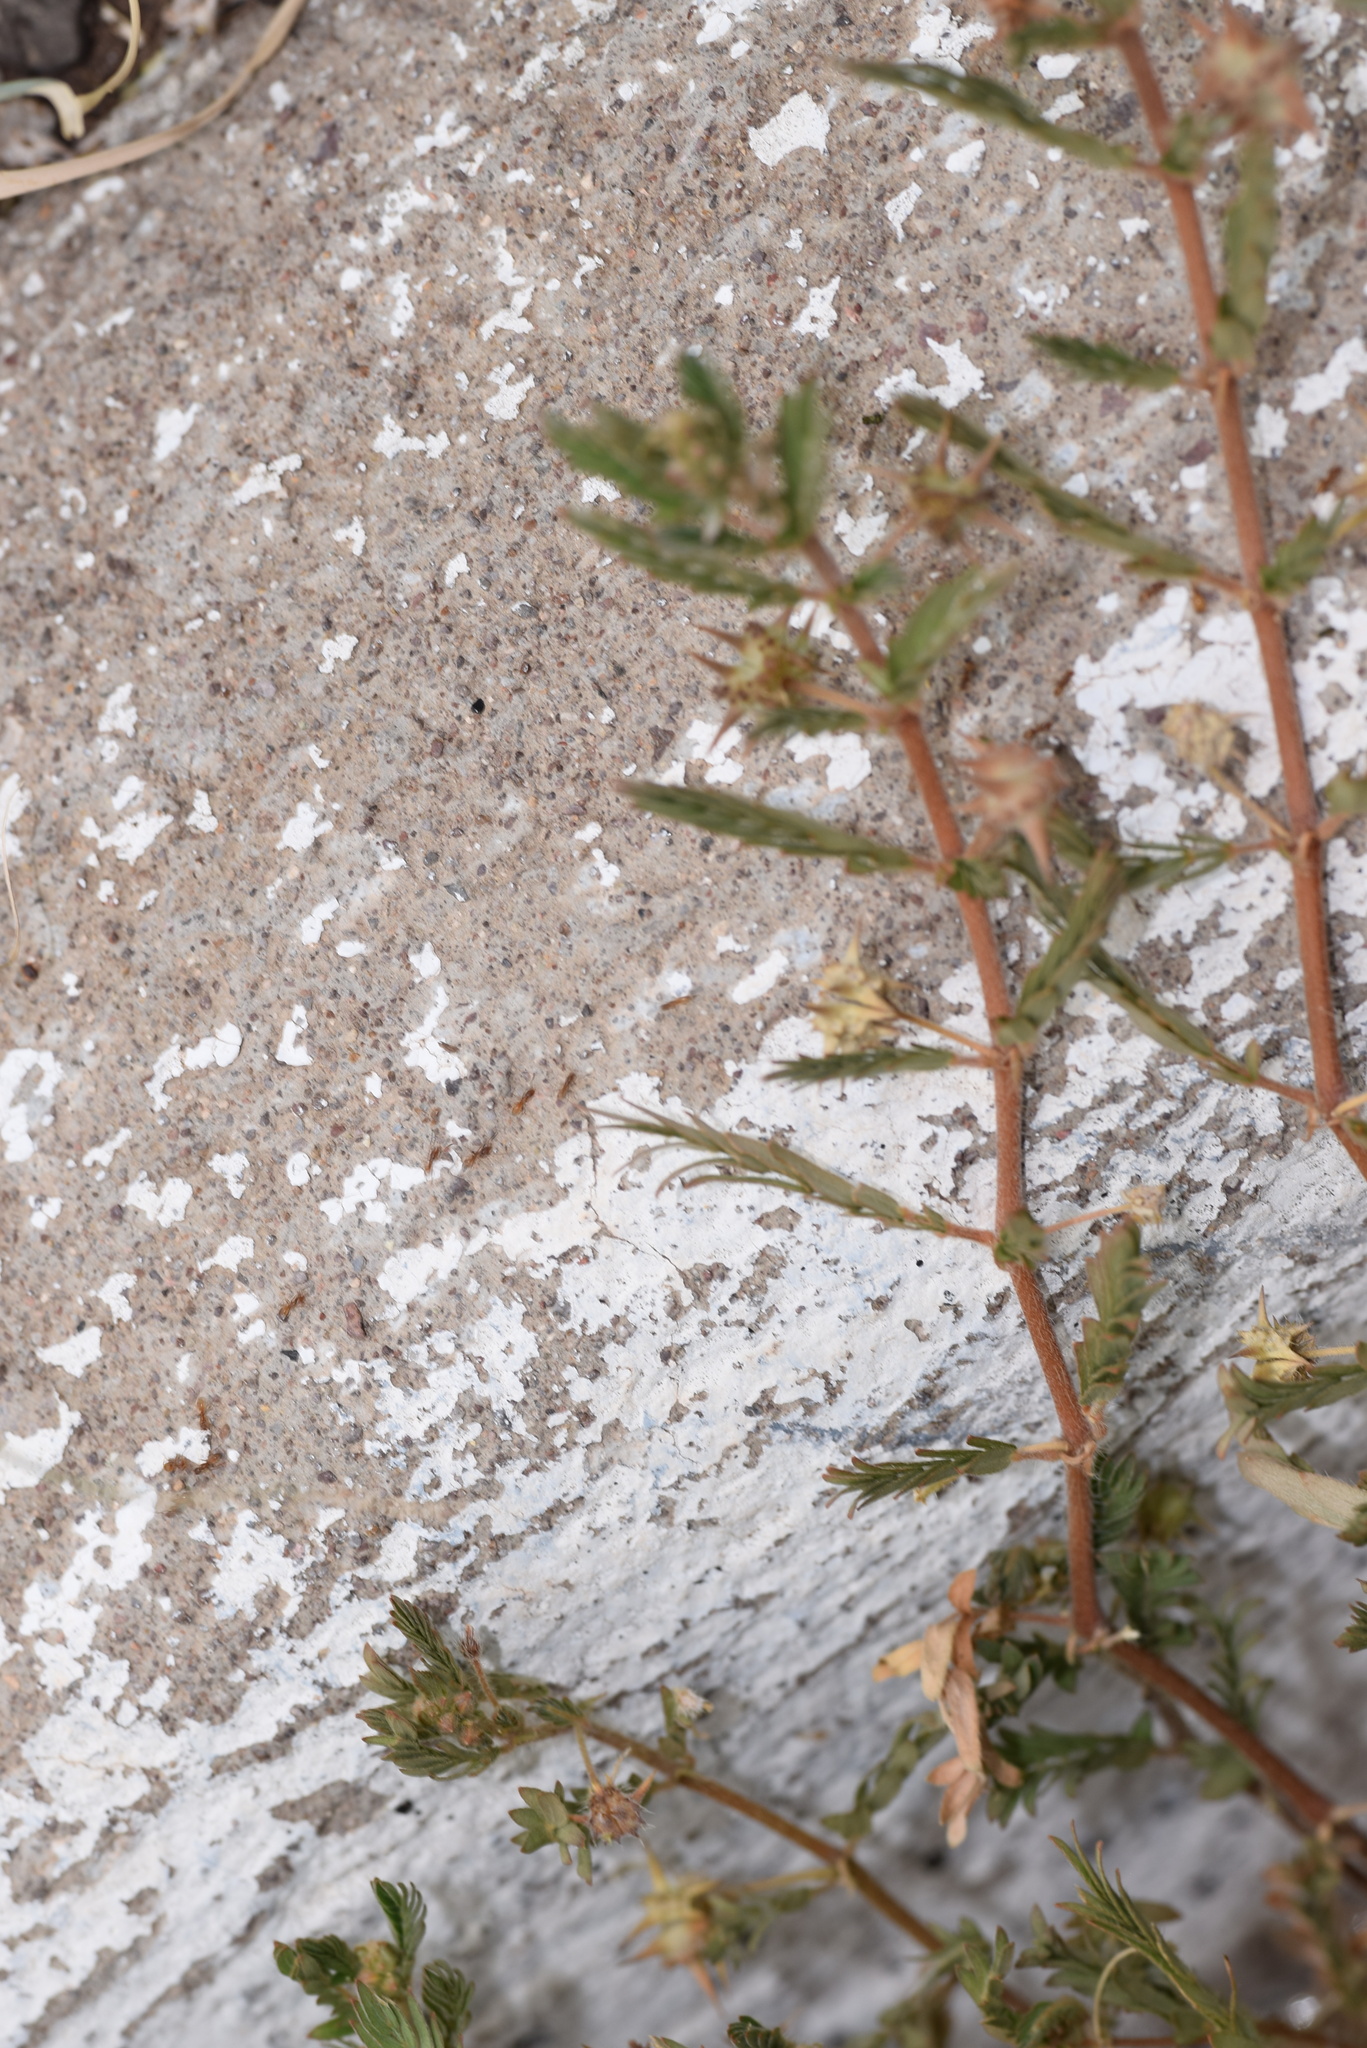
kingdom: Plantae
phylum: Tracheophyta
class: Magnoliopsida
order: Zygophyllales
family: Zygophyllaceae
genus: Tribulus
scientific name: Tribulus terrestris
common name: Puncturevine
